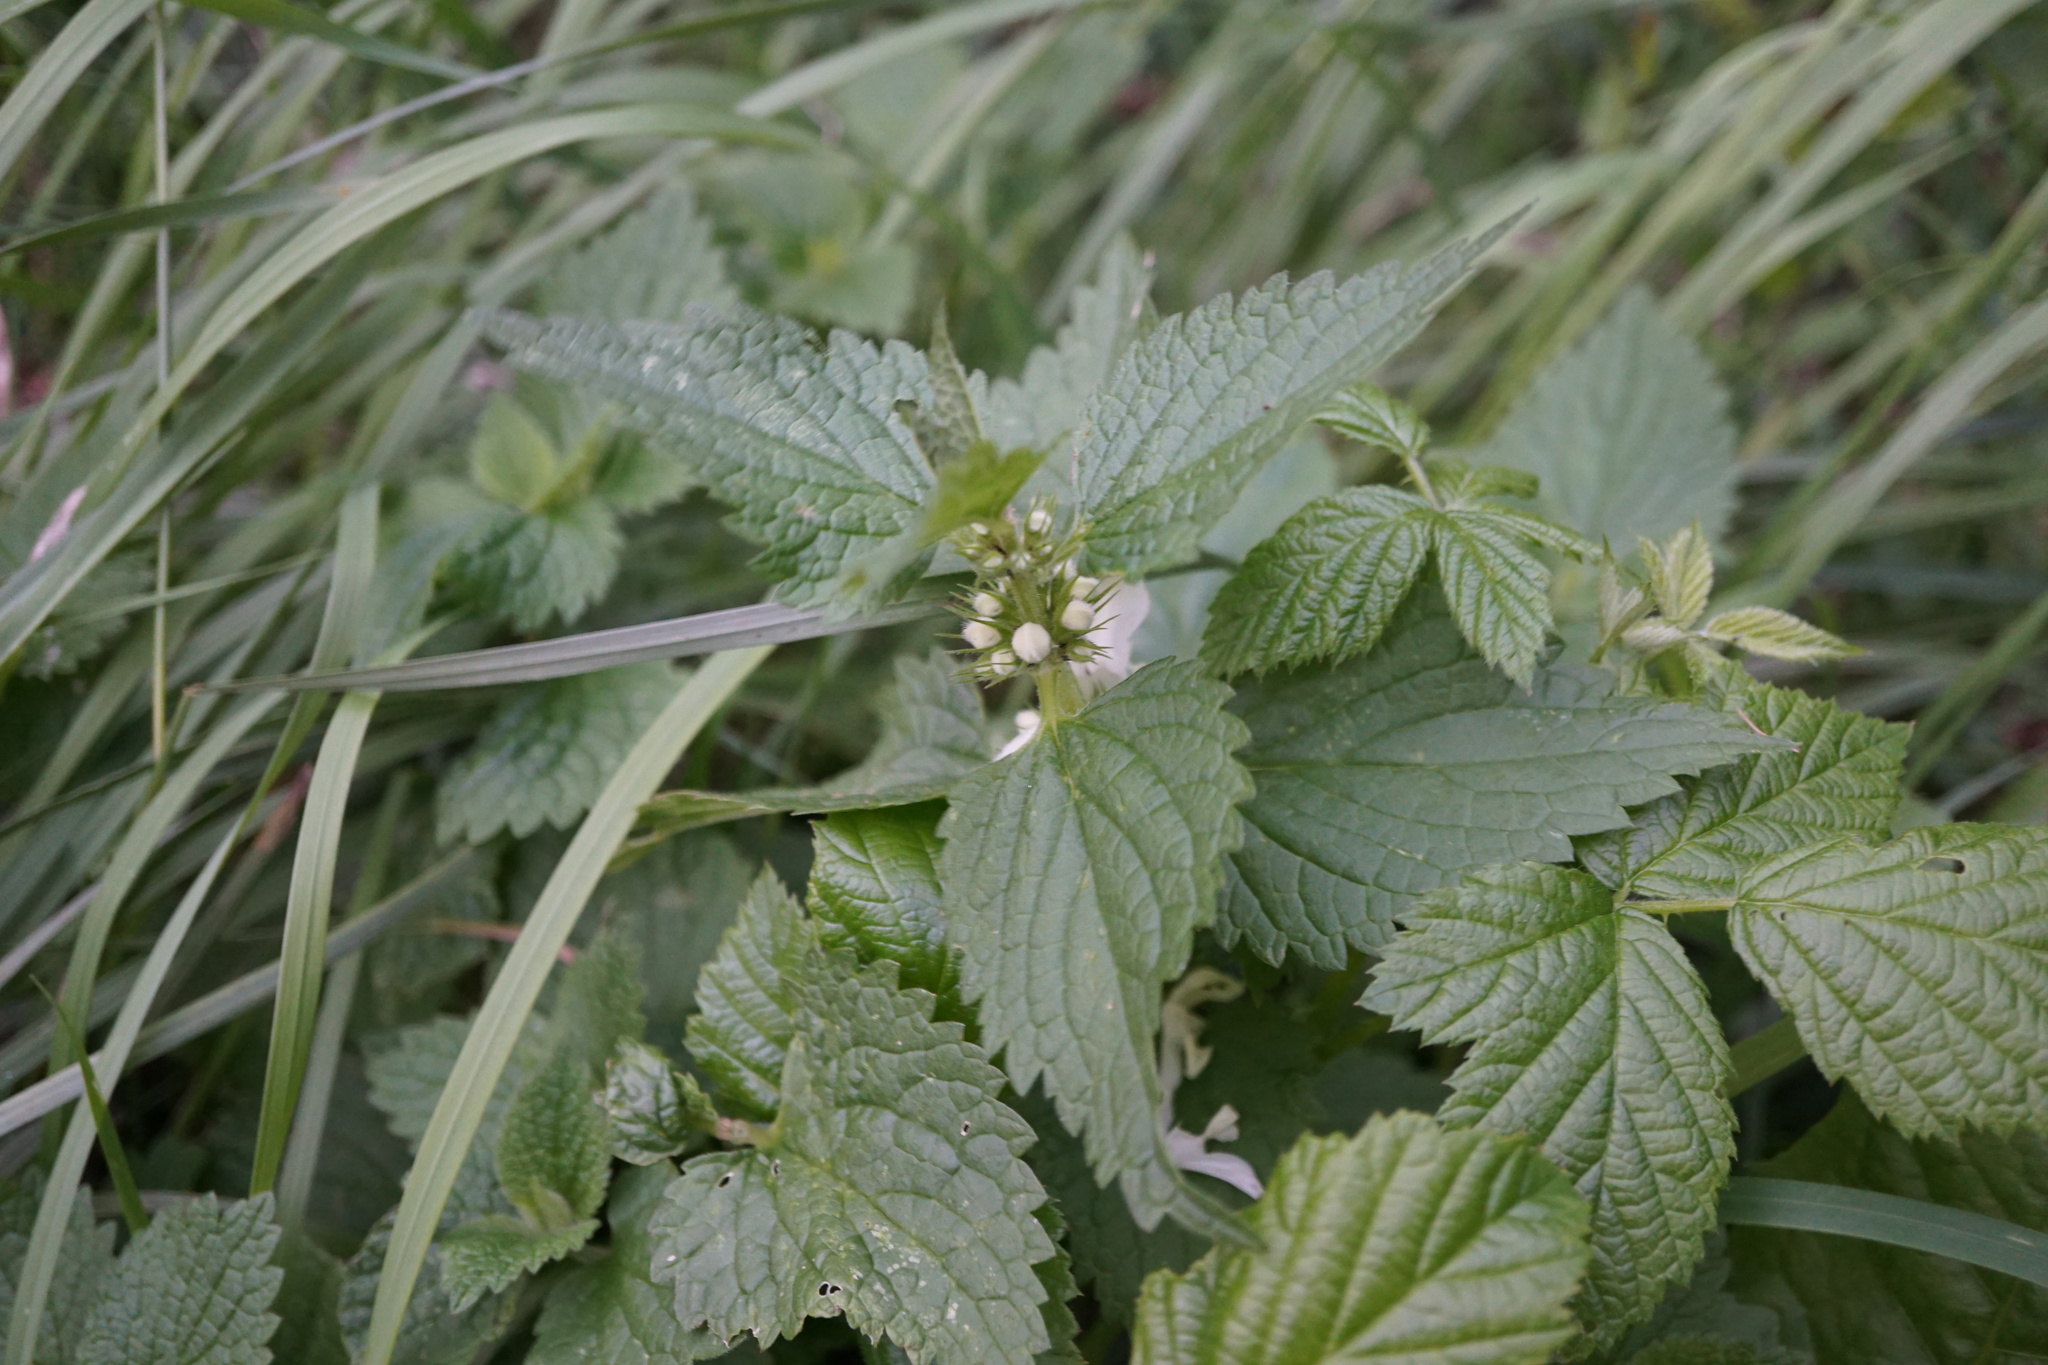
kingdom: Plantae
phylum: Tracheophyta
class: Magnoliopsida
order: Lamiales
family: Lamiaceae
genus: Lamium
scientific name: Lamium album
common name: White dead-nettle
